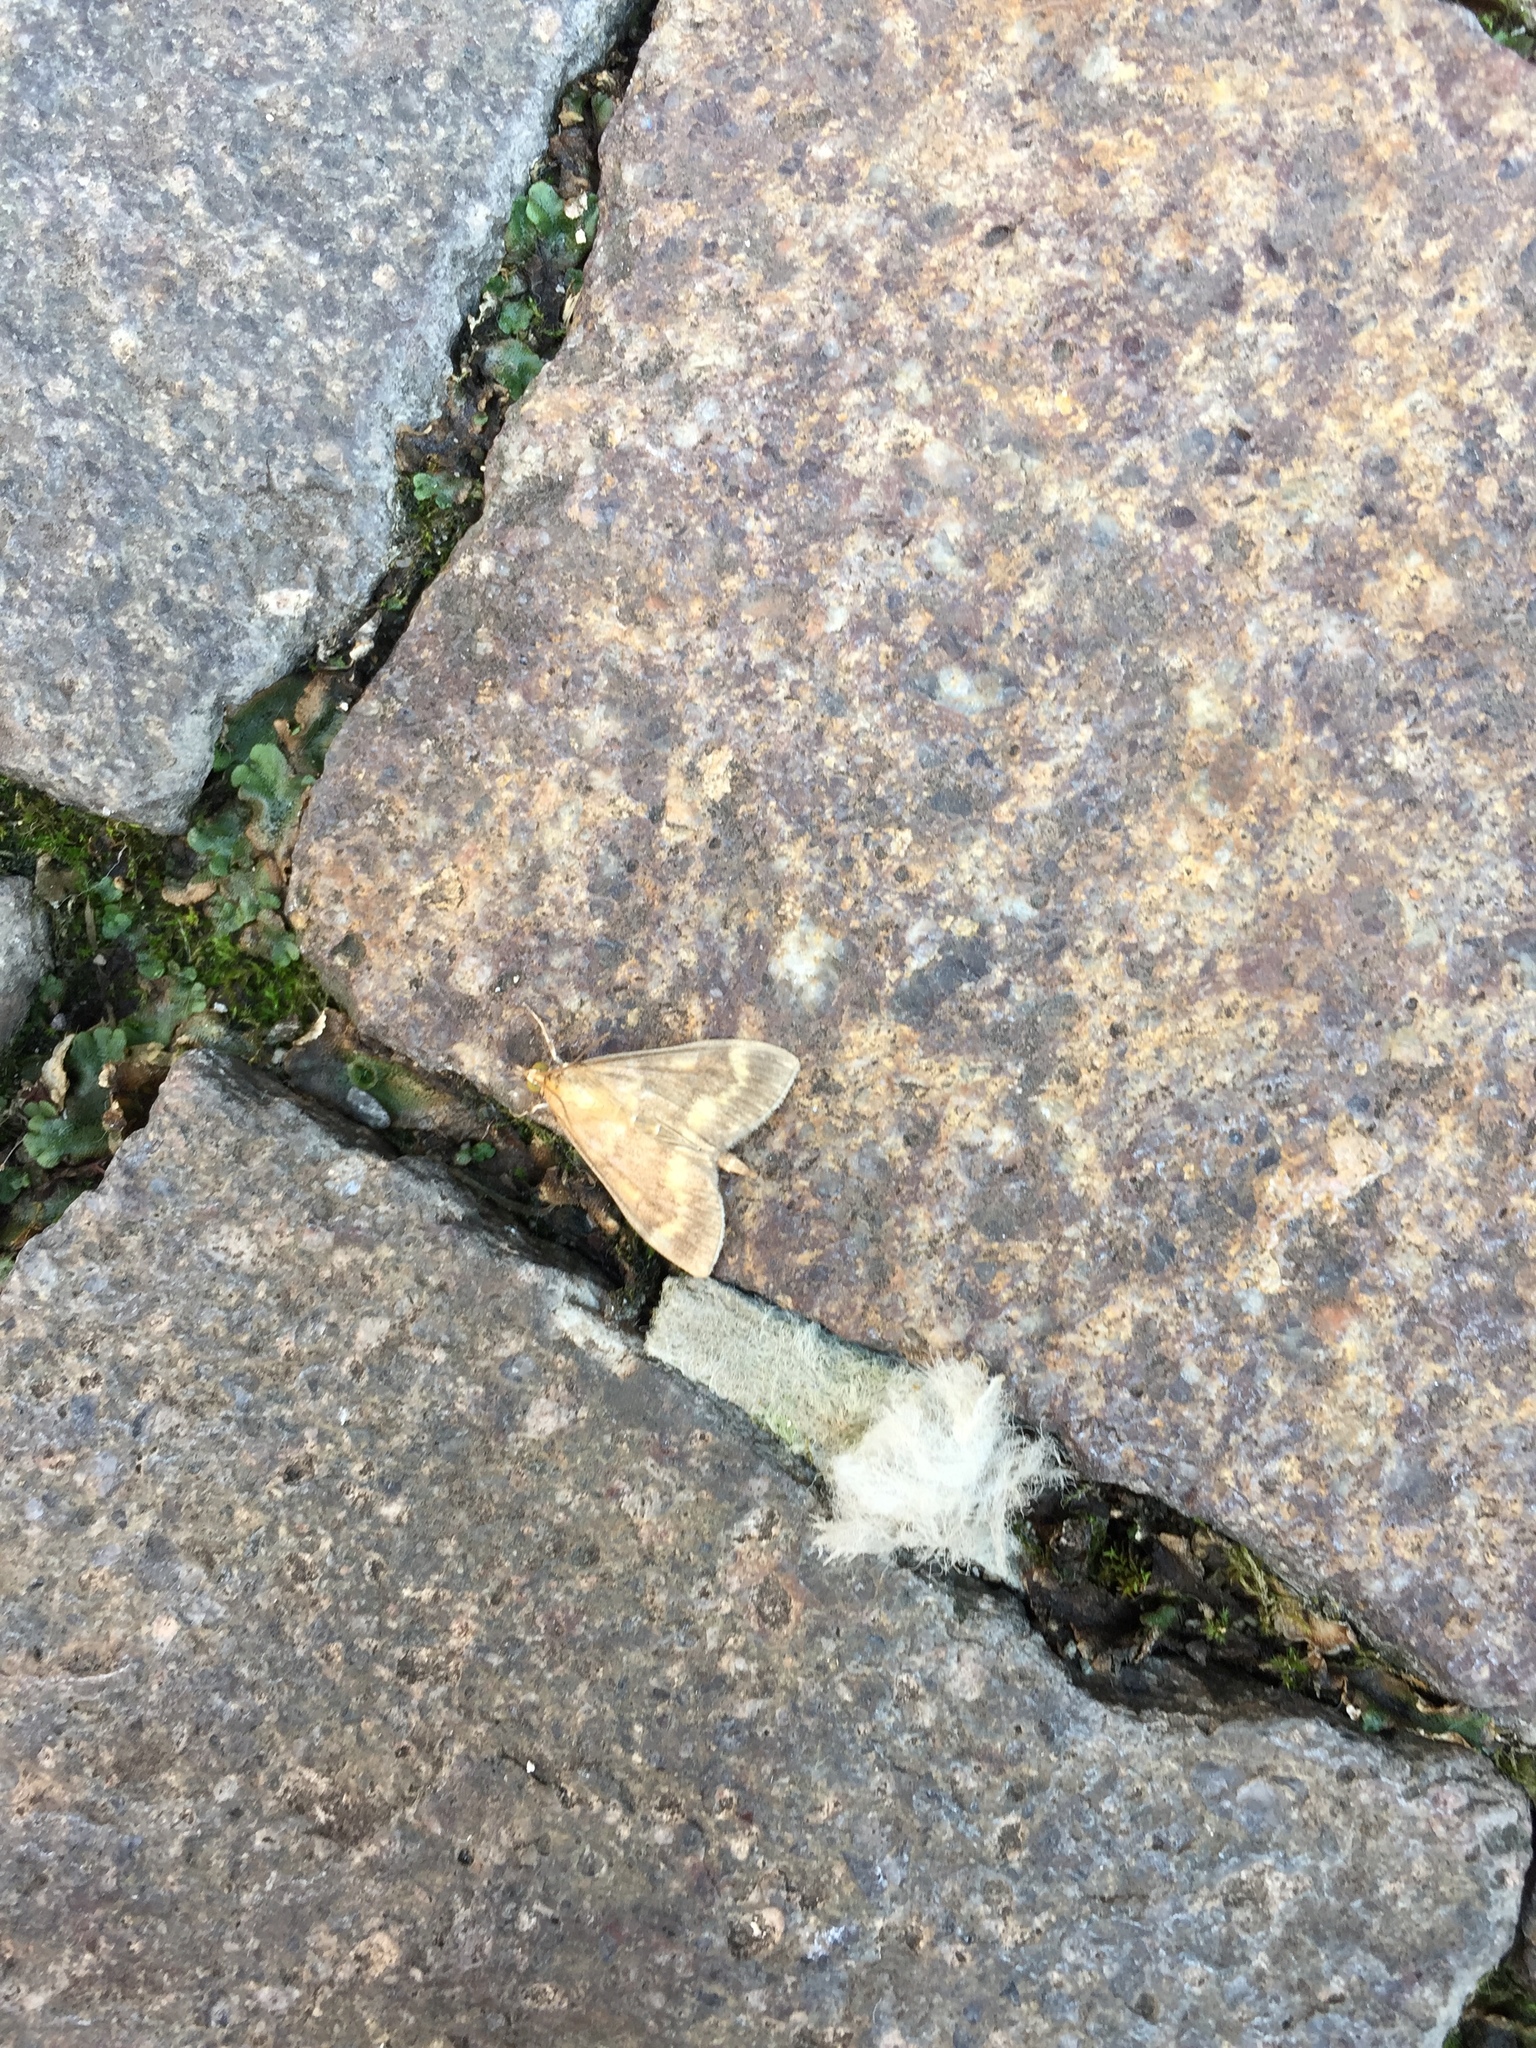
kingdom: Animalia
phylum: Arthropoda
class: Insecta
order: Lepidoptera
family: Crambidae
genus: Ostrinia
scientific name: Ostrinia nubilalis
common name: European corn borer
